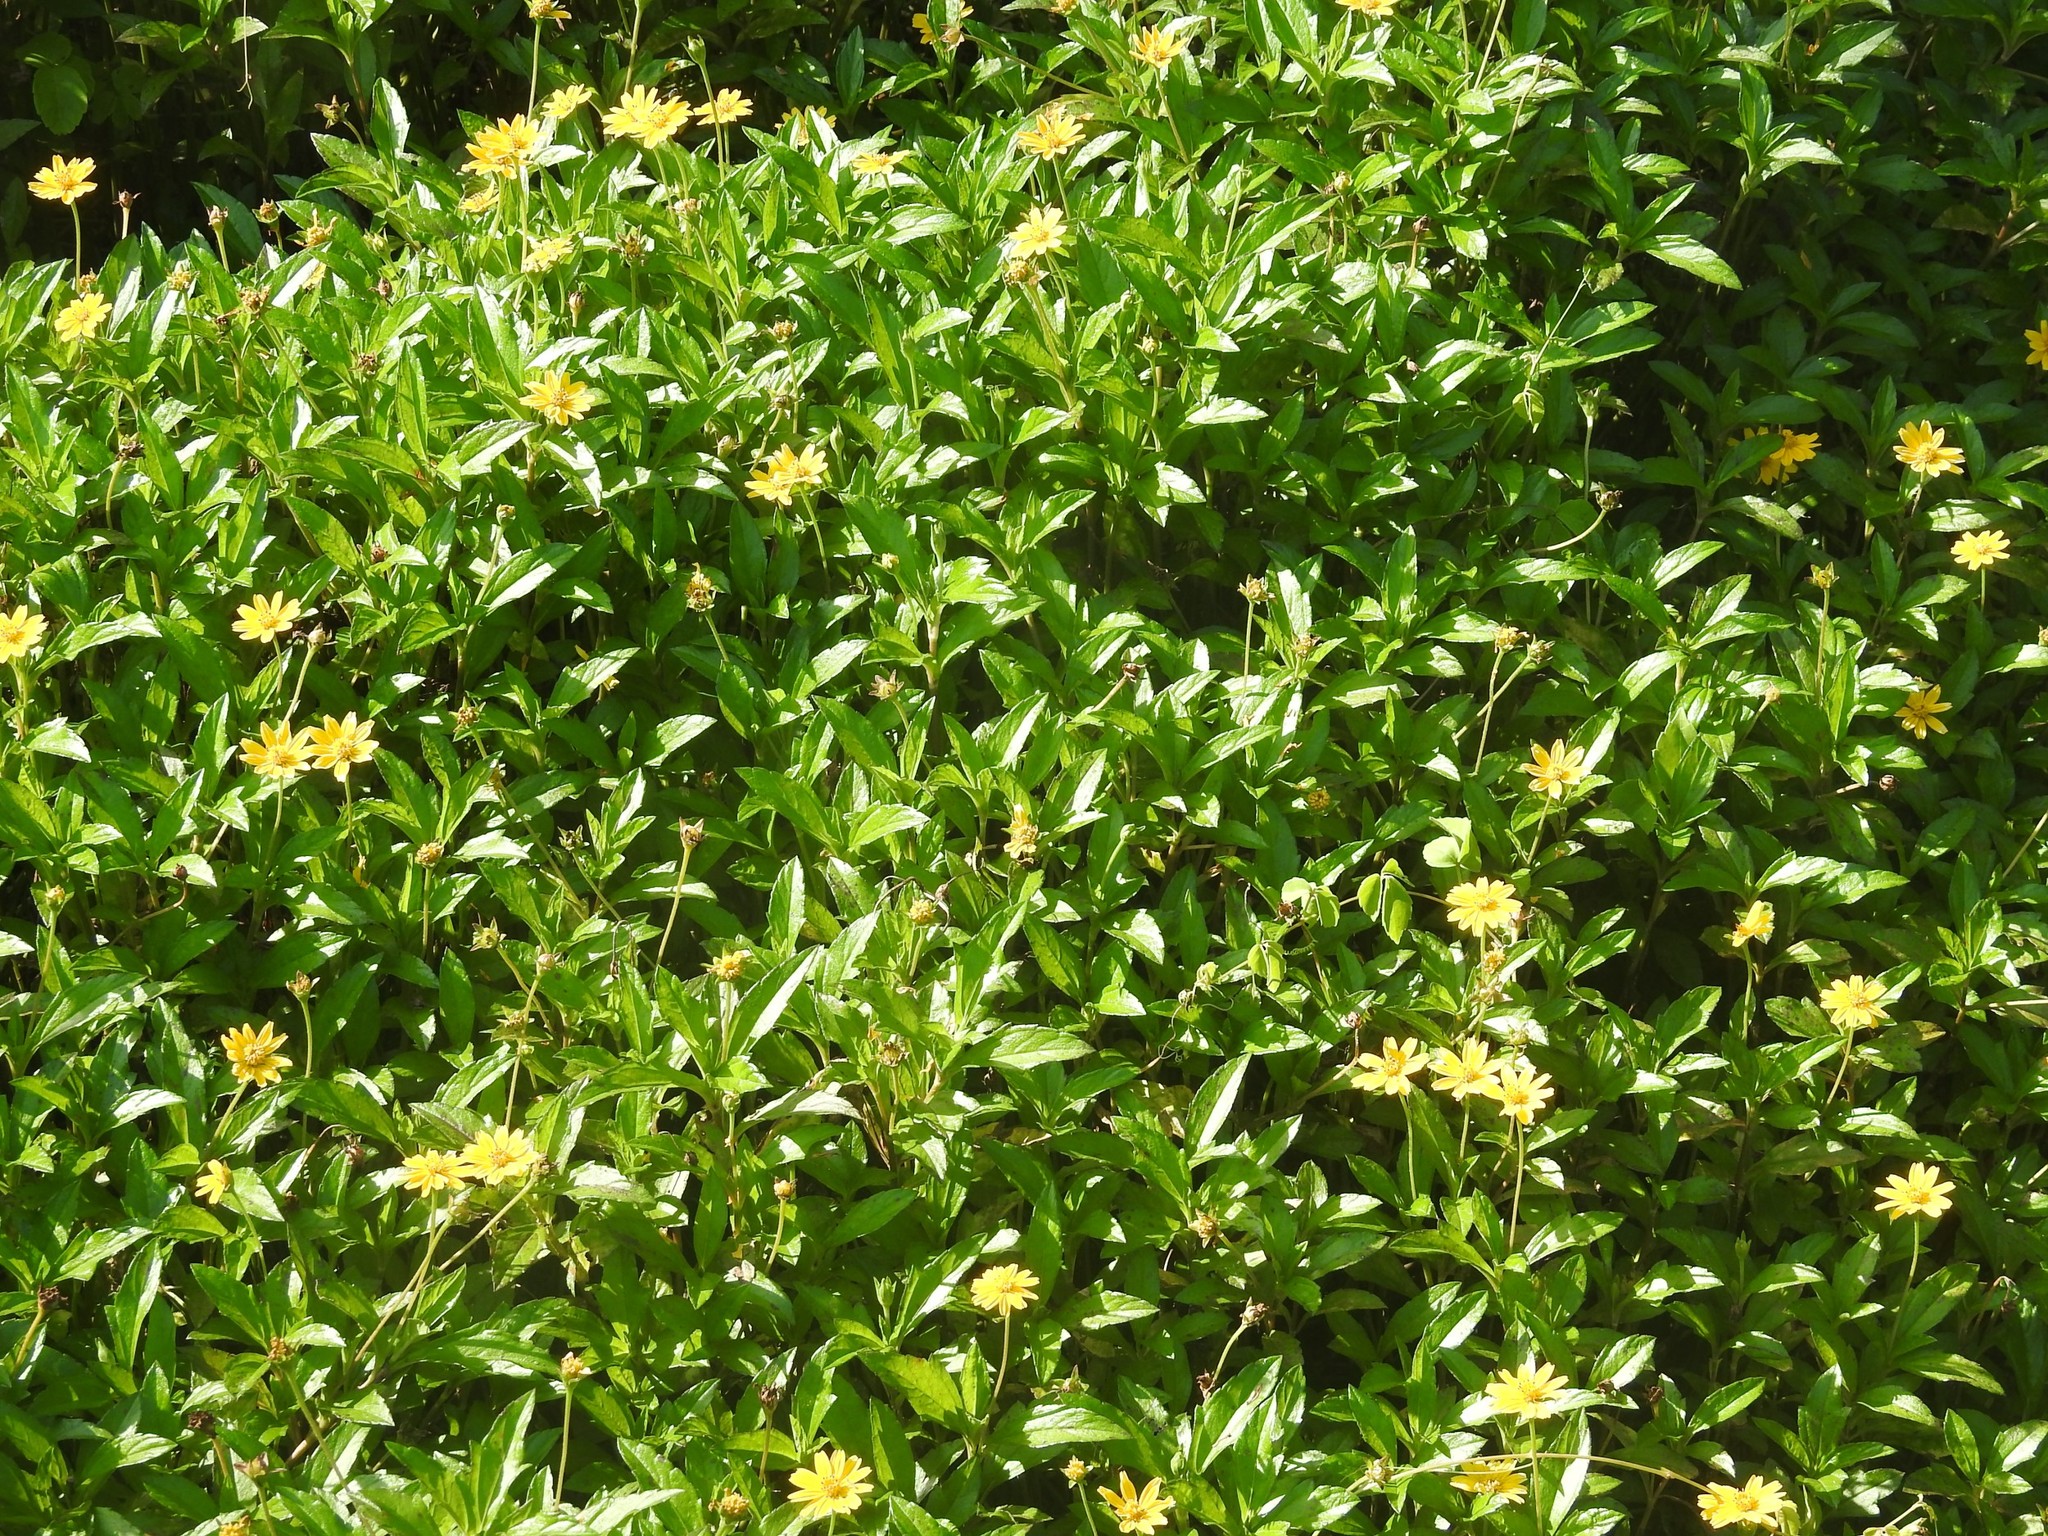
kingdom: Plantae
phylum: Tracheophyta
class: Magnoliopsida
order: Asterales
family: Asteraceae
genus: Sphagneticola
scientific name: Sphagneticola trilobata
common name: Bay biscayne creeping-oxeye
